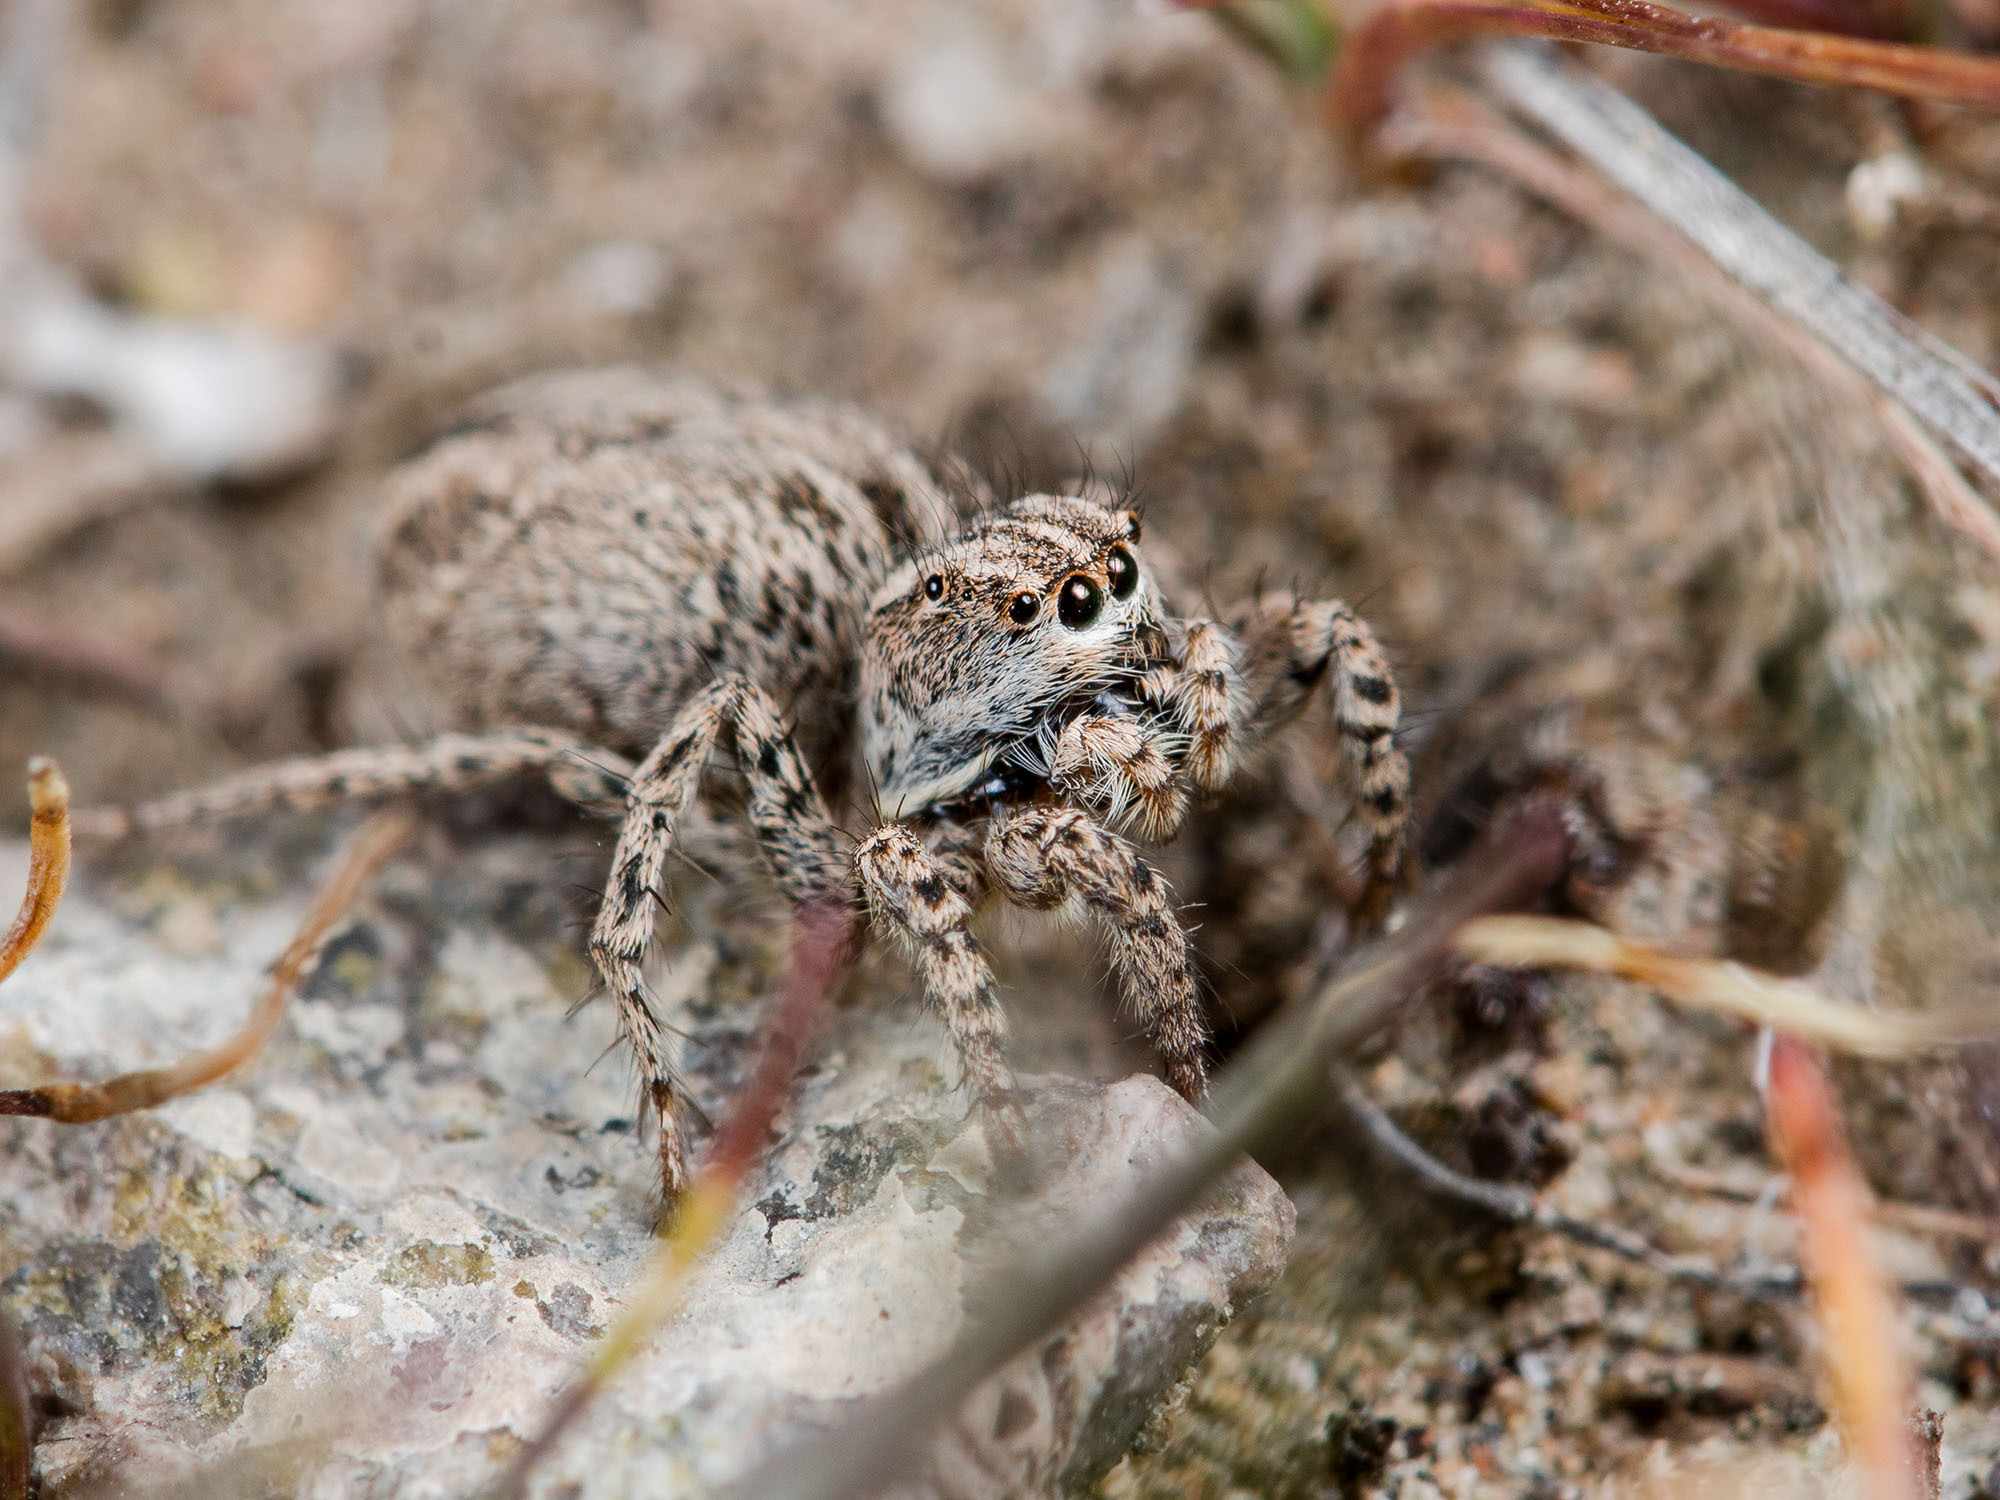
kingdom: Animalia
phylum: Arthropoda
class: Arachnida
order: Araneae
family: Salticidae
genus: Aelurillus
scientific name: Aelurillus m-nigrum
